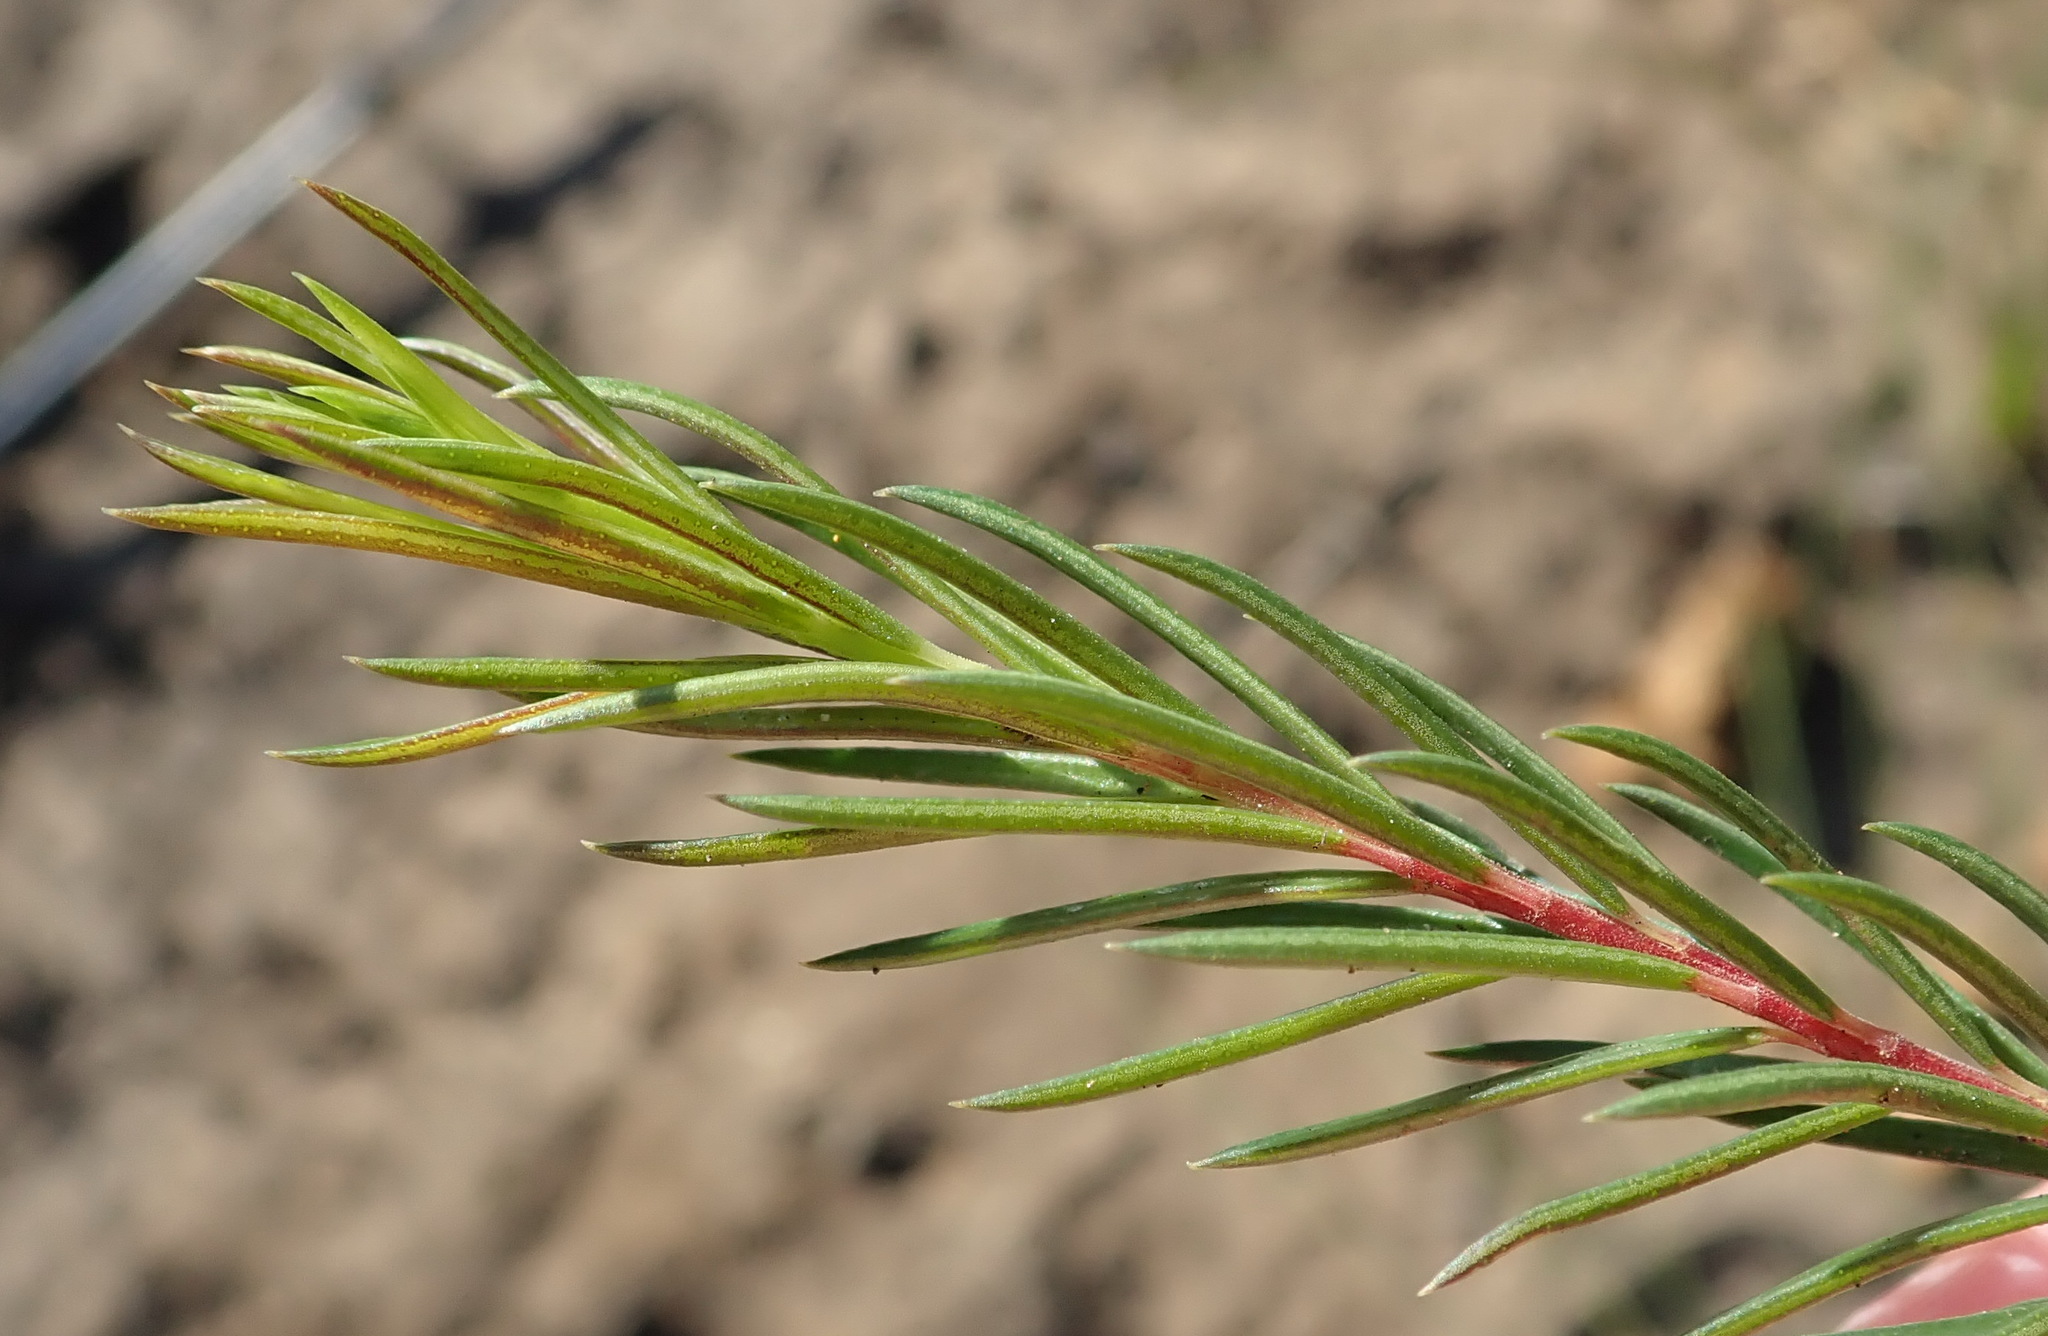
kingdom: Plantae
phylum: Tracheophyta
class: Magnoliopsida
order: Sapindales
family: Rutaceae
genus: Acmadenia
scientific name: Acmadenia alternifolia
